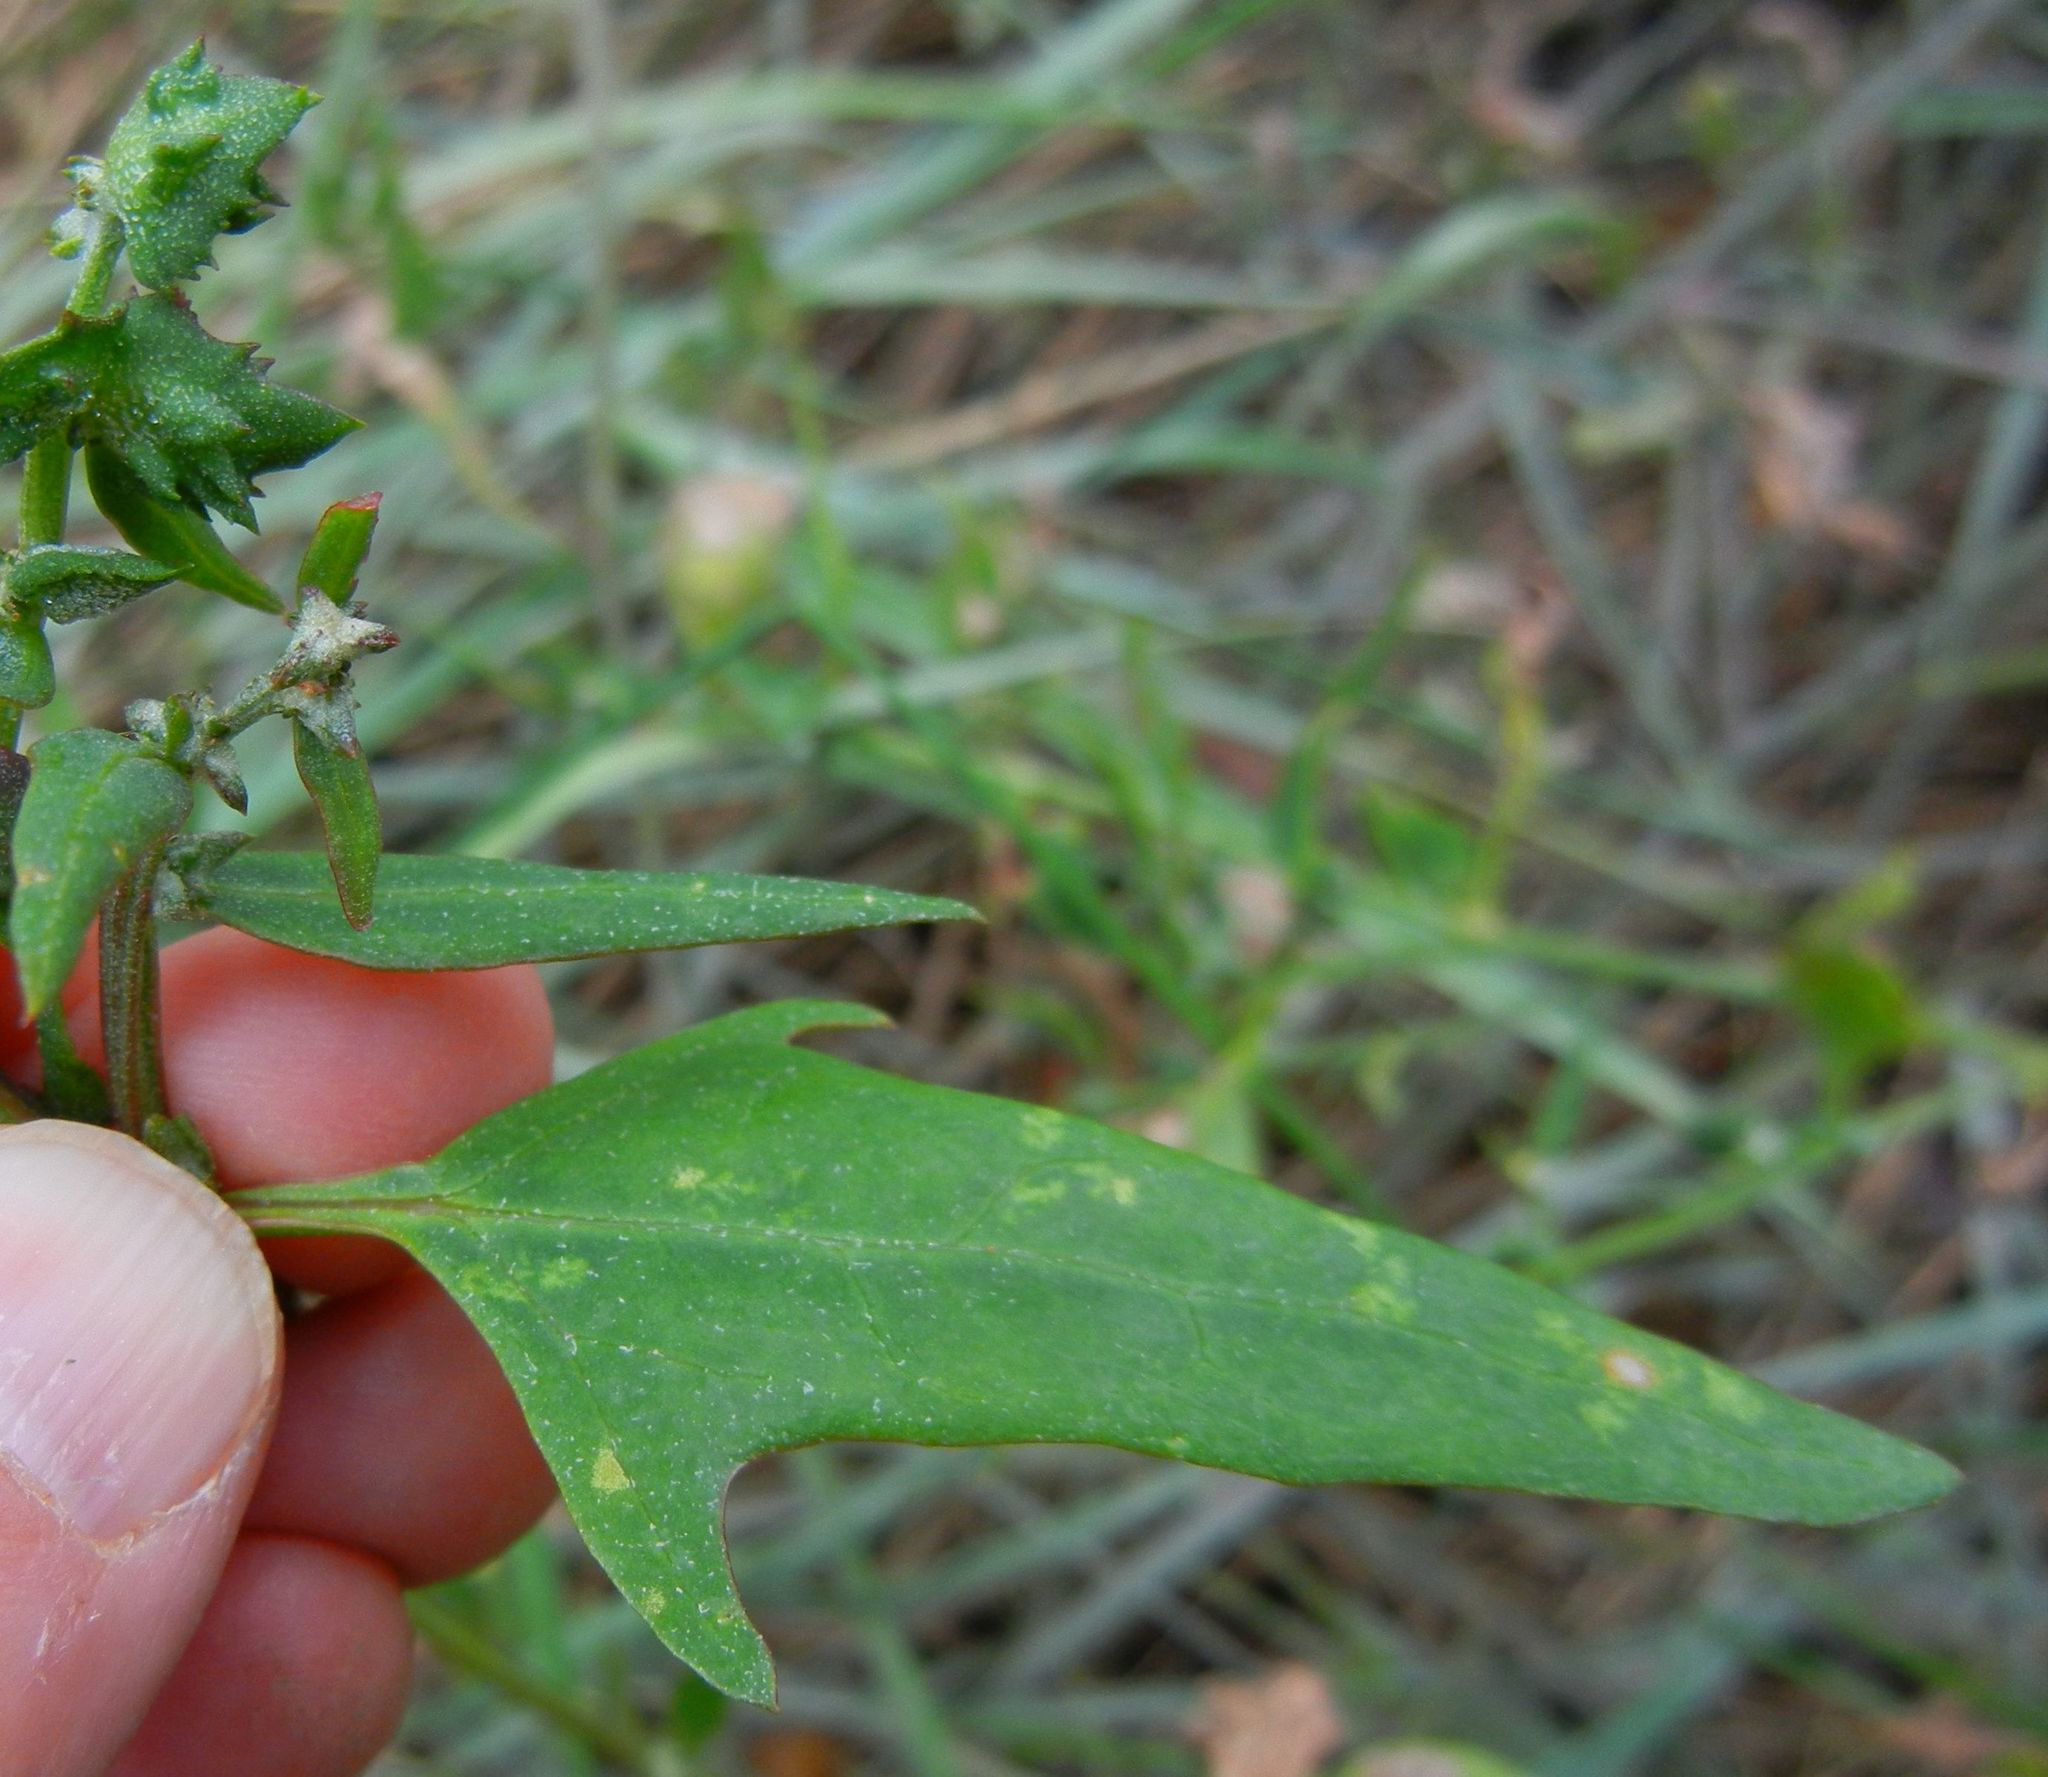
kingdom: Plantae
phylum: Tracheophyta
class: Magnoliopsida
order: Caryophyllales
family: Amaranthaceae
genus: Atriplex
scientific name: Atriplex patula
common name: Common orache
